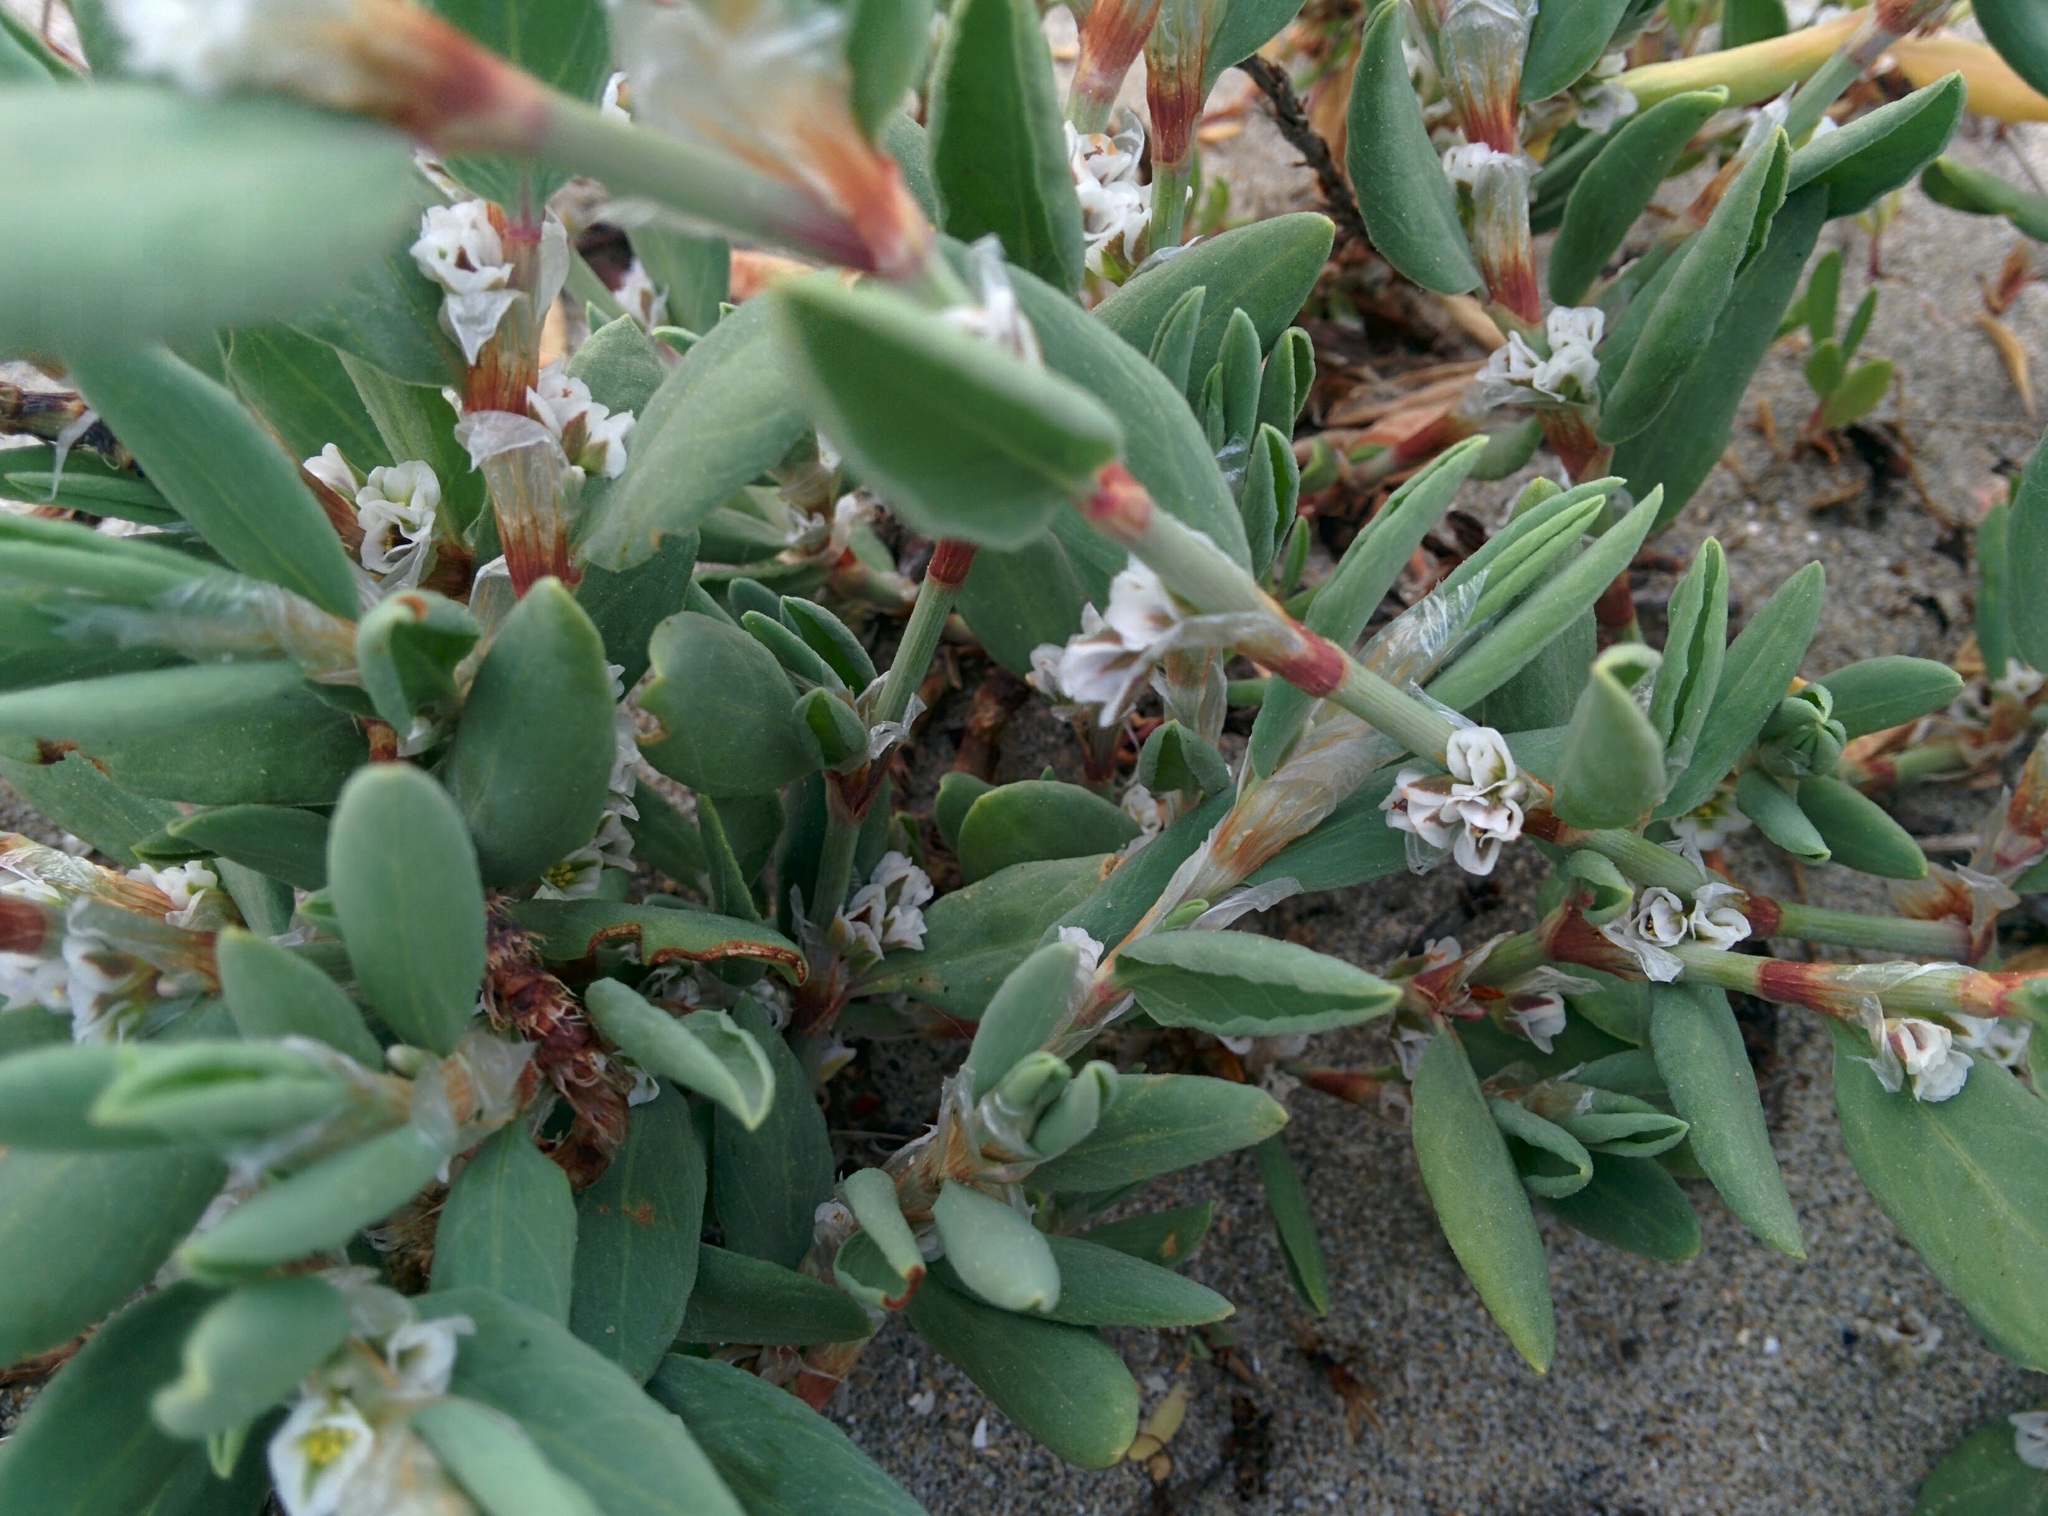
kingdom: Plantae
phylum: Tracheophyta
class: Magnoliopsida
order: Caryophyllales
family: Polygonaceae
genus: Polygonum
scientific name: Polygonum maritimum
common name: Sea knotgrass
